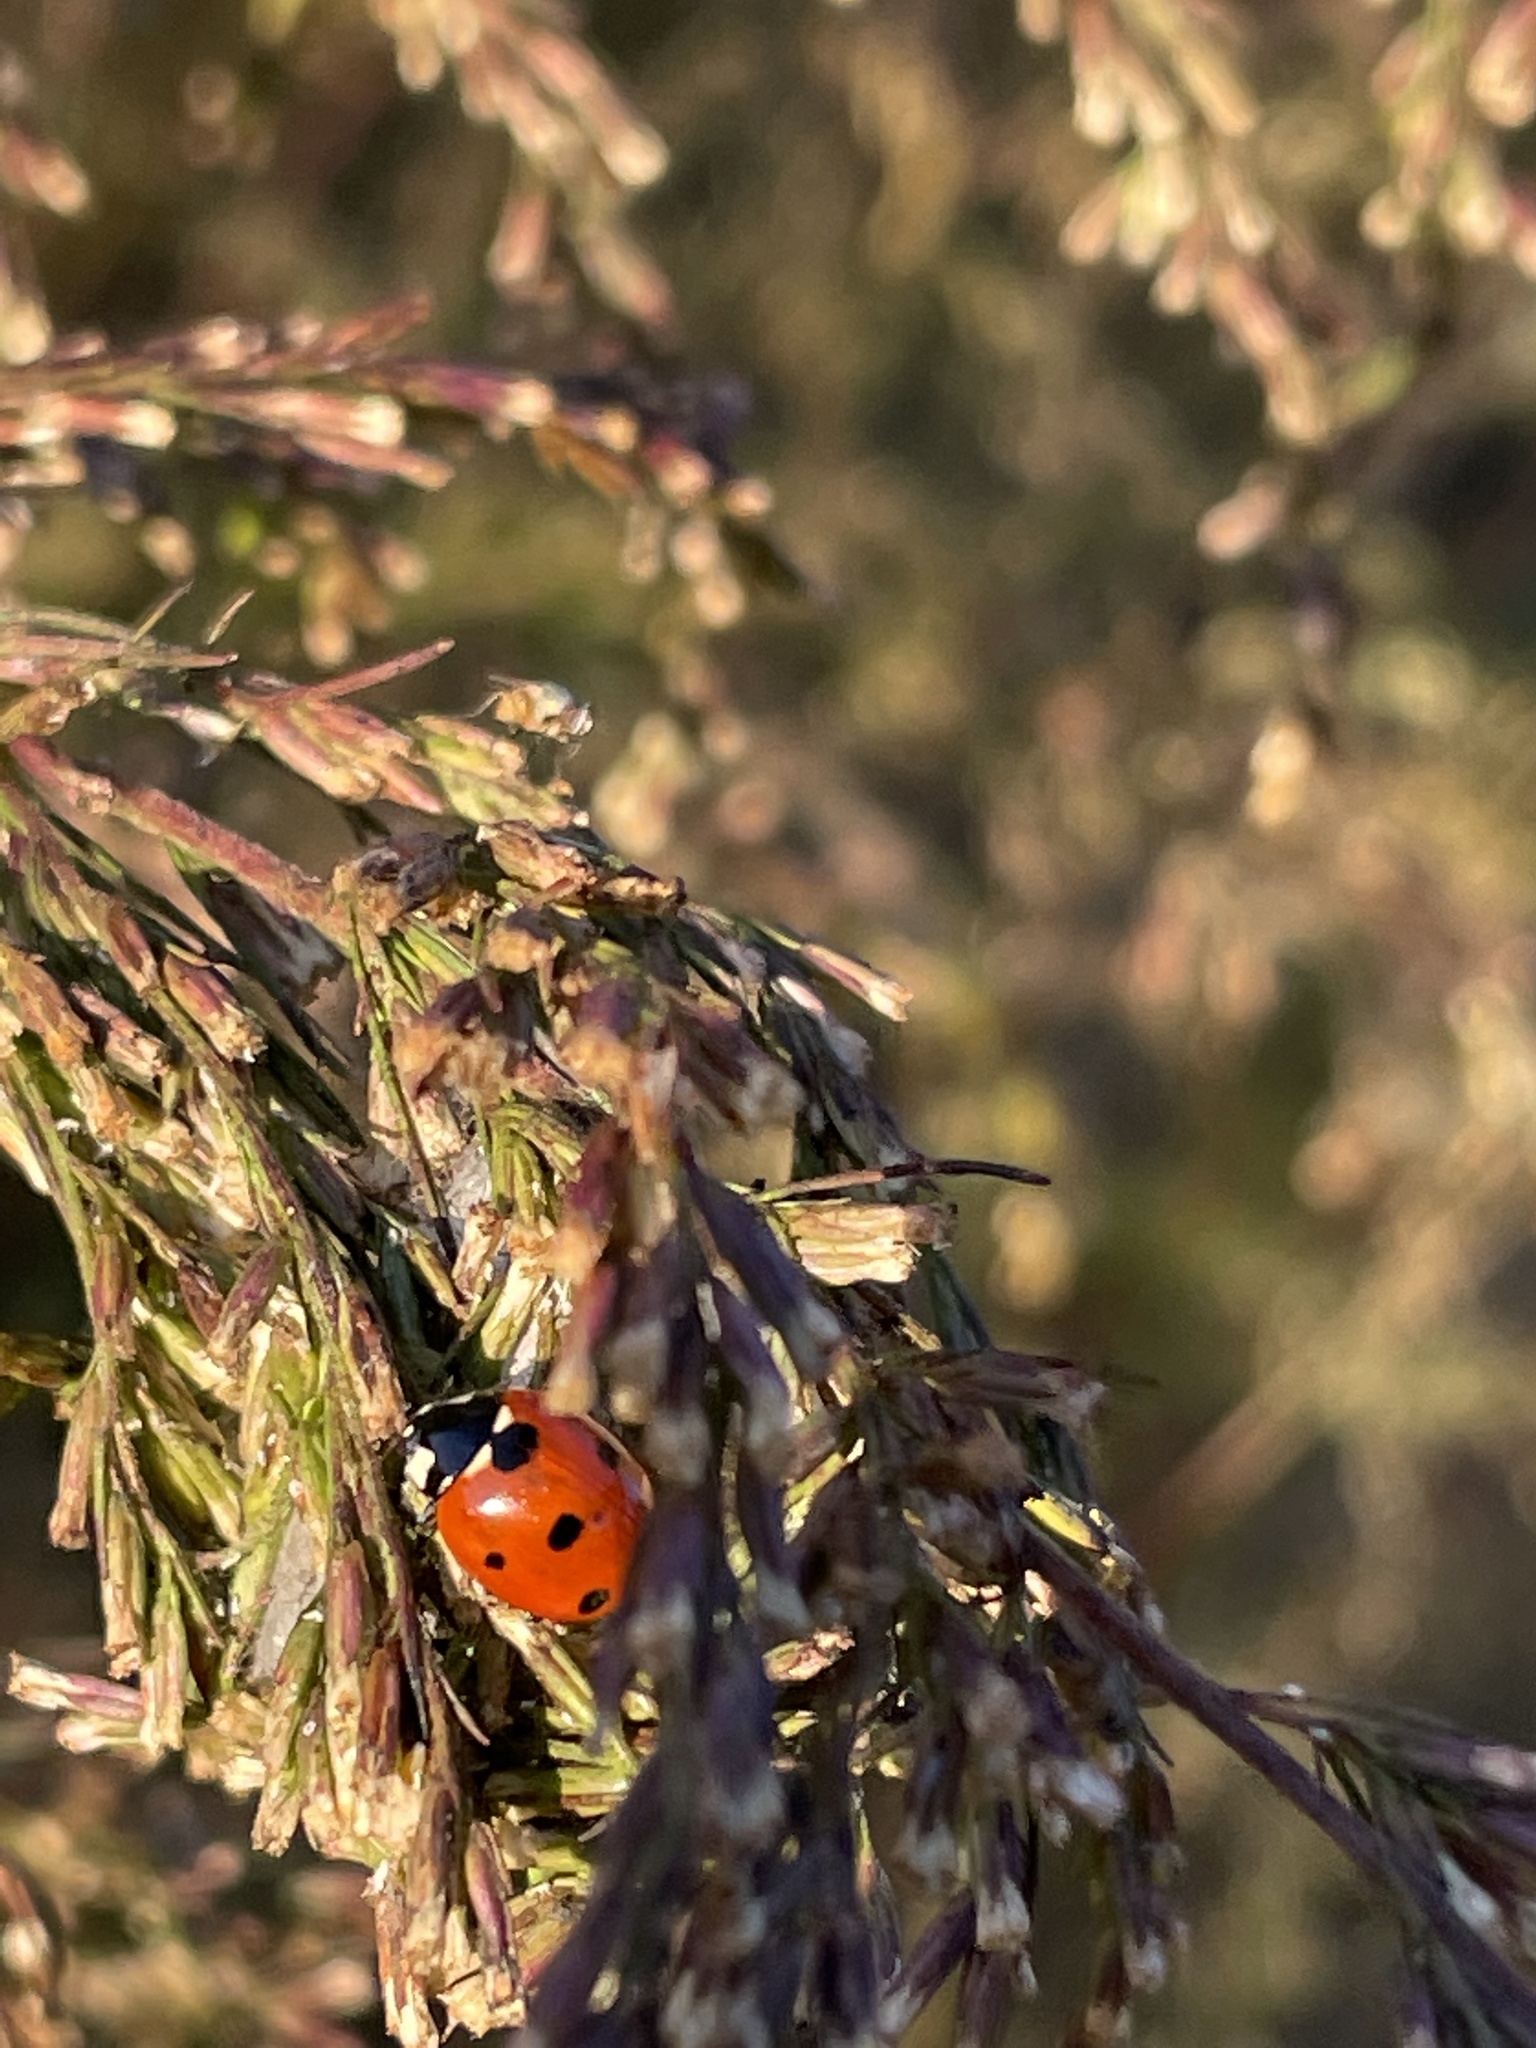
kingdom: Animalia
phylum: Arthropoda
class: Insecta
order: Coleoptera
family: Coccinellidae
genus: Coccinella
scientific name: Coccinella septempunctata
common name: Sevenspotted lady beetle
